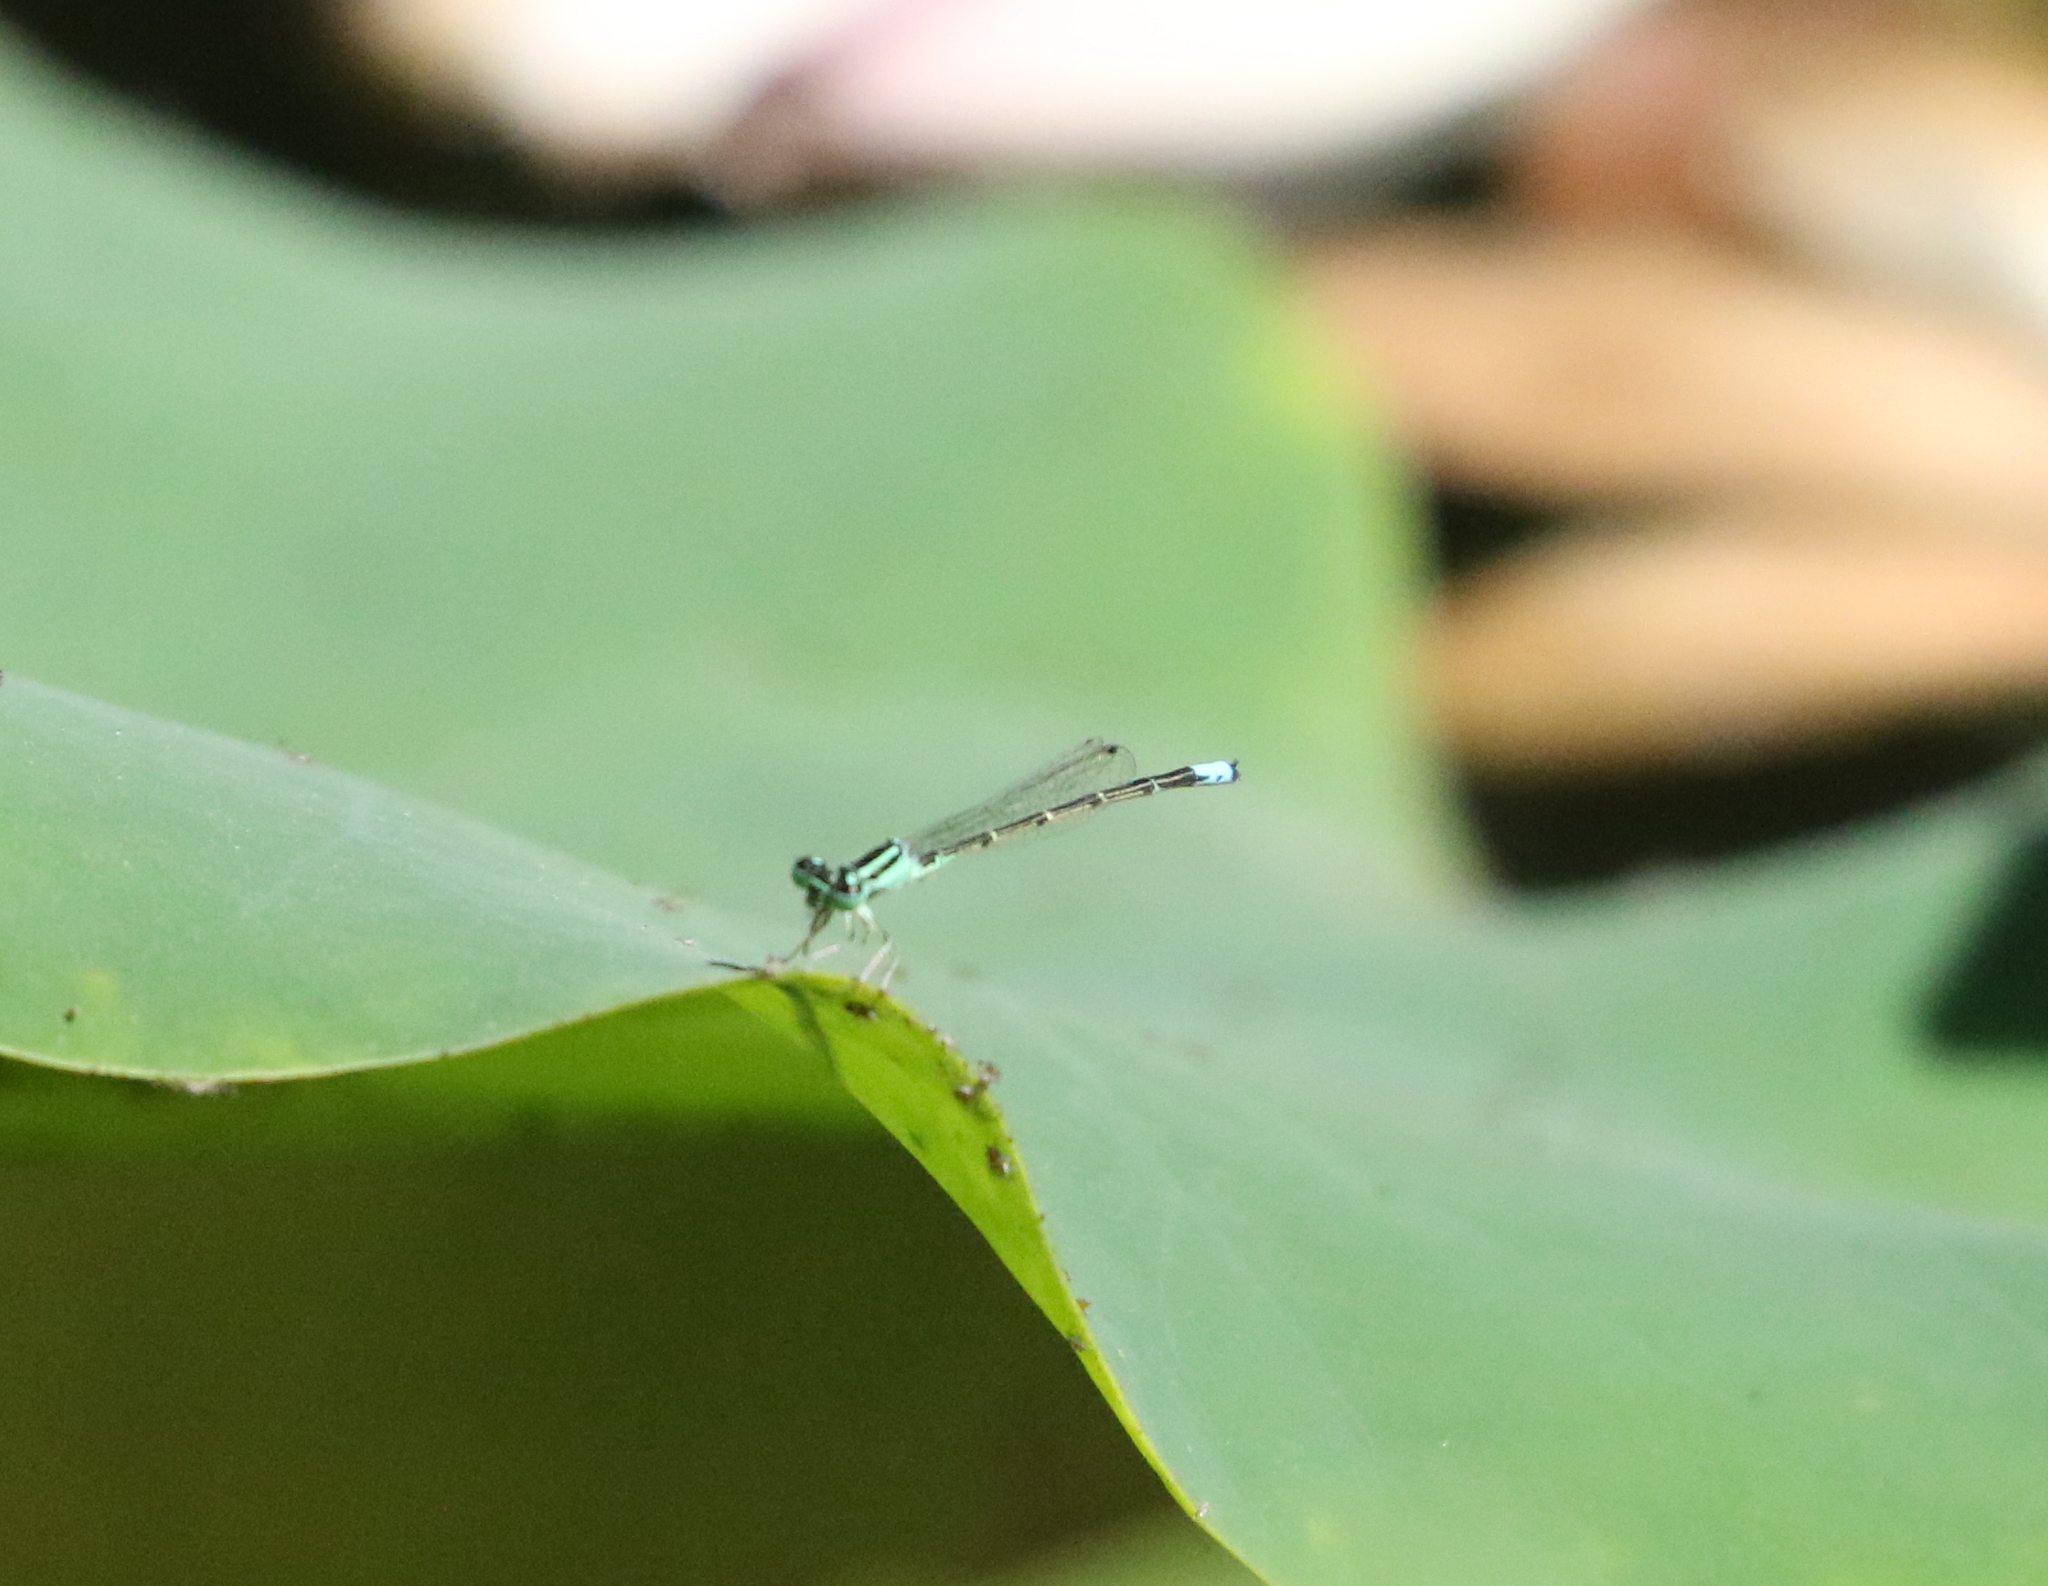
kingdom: Animalia
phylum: Arthropoda
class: Insecta
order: Odonata
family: Coenagrionidae
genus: Ischnura
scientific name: Ischnura demorsa
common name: Mexican forktail
